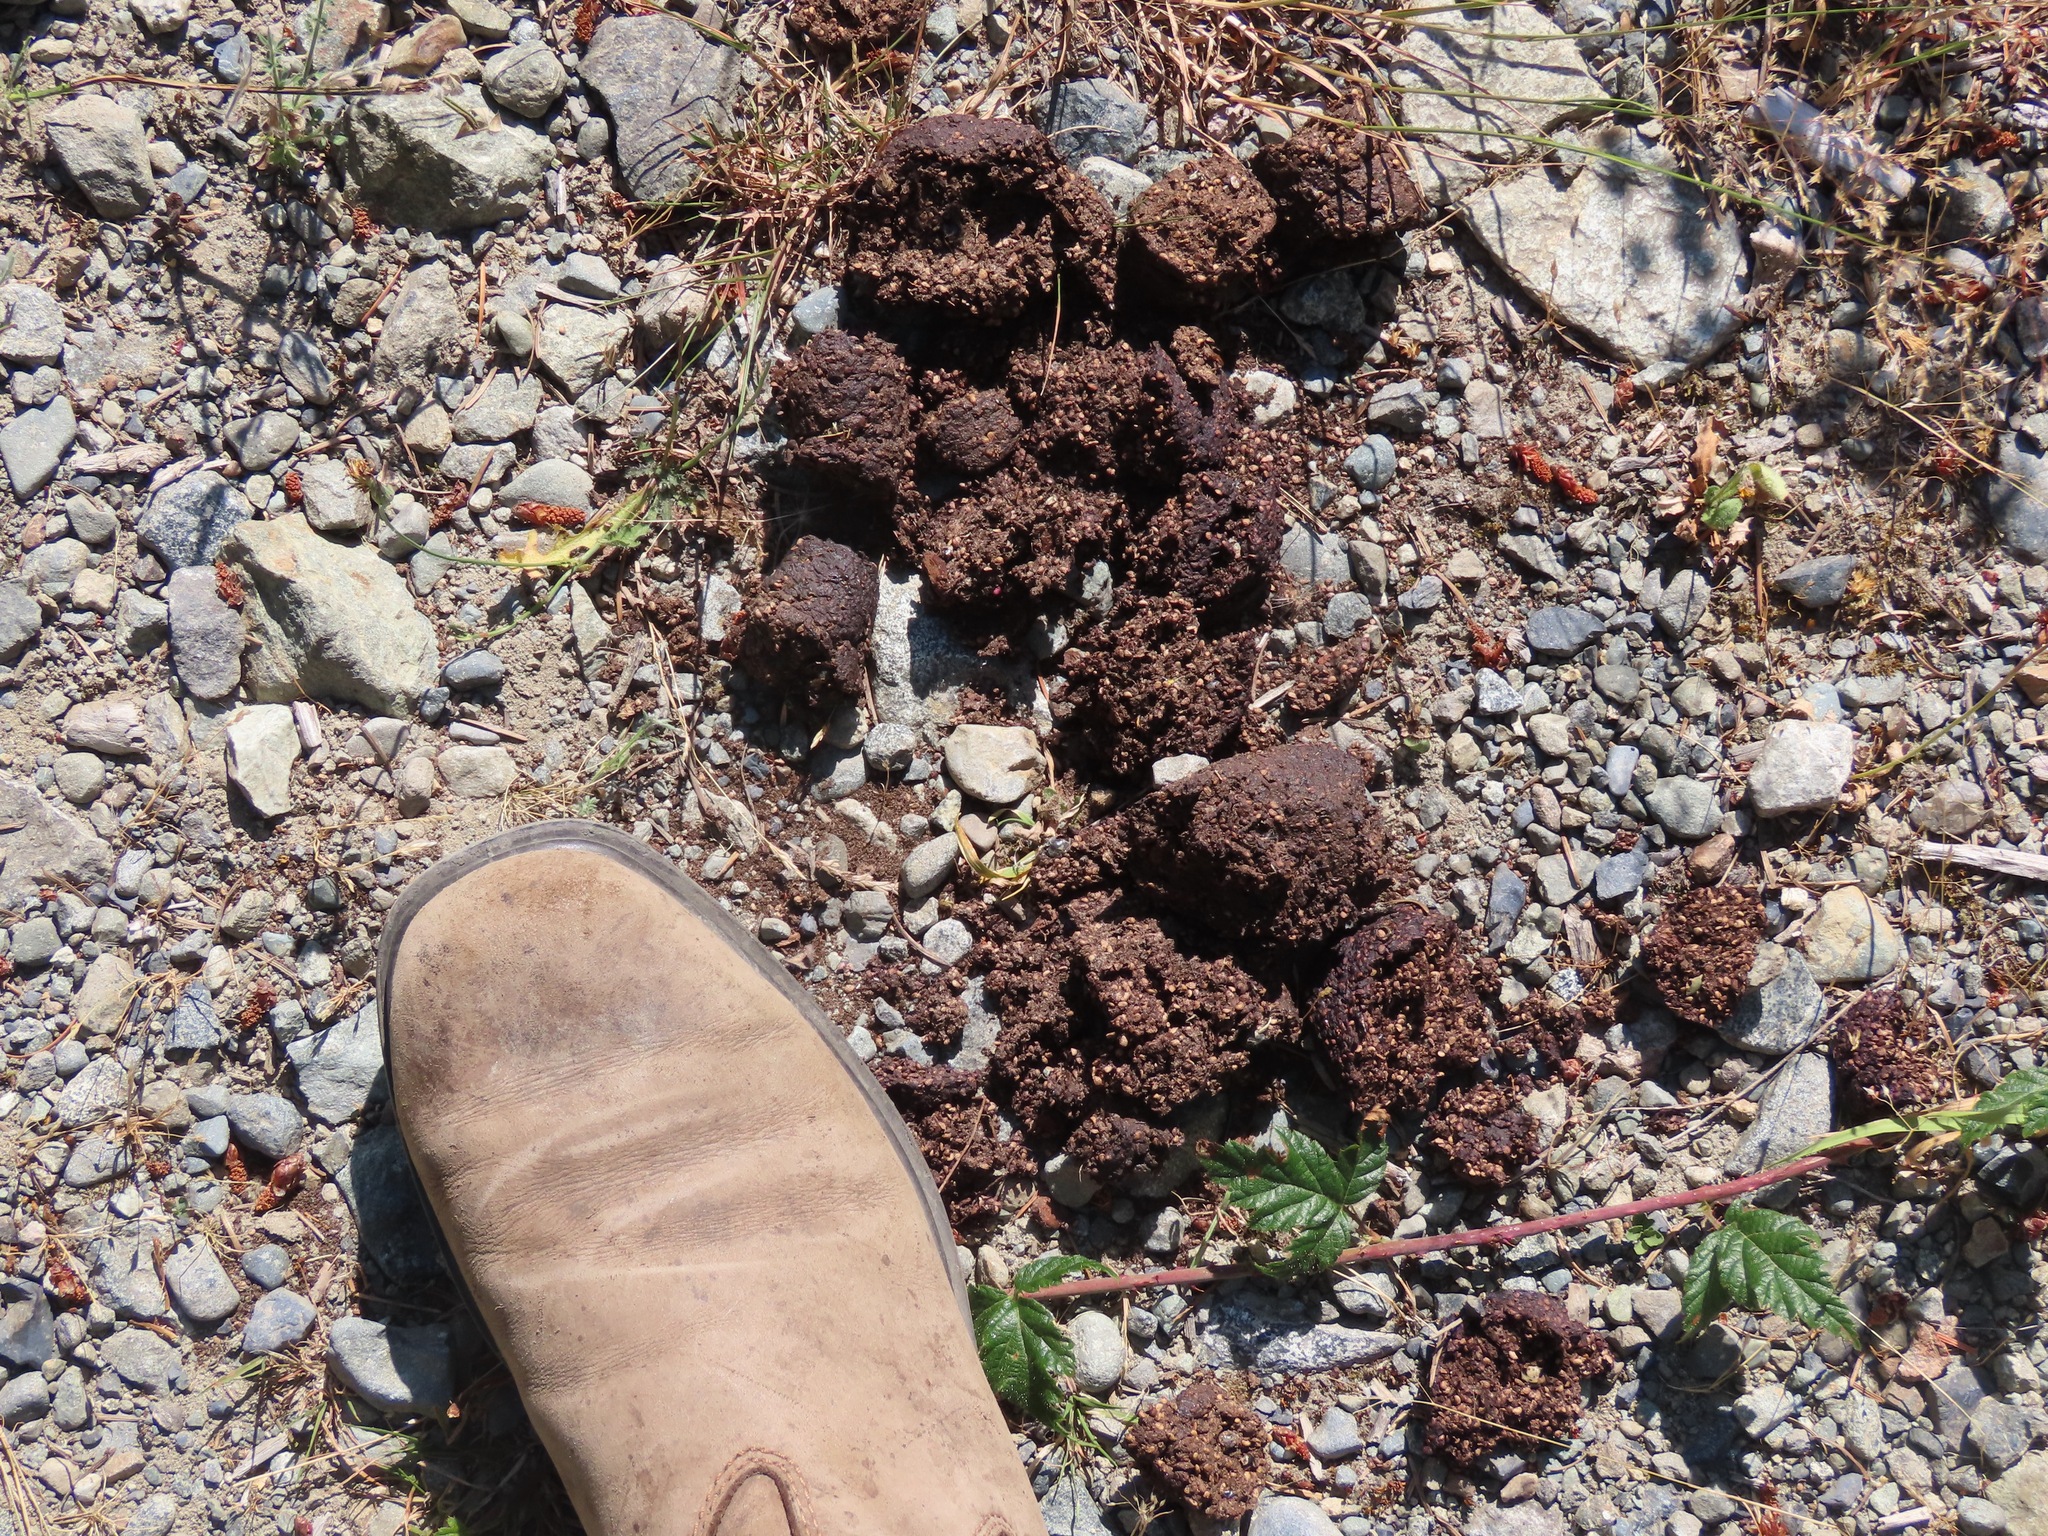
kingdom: Animalia
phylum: Chordata
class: Mammalia
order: Carnivora
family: Ursidae
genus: Ursus
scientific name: Ursus americanus
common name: American black bear
